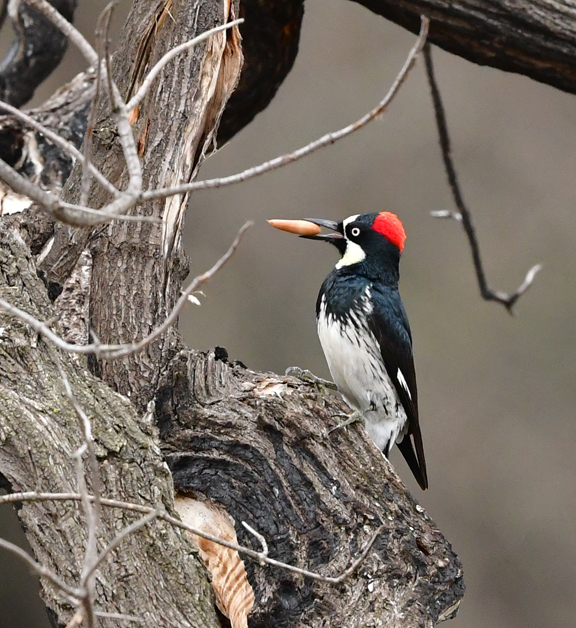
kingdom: Animalia
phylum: Chordata
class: Aves
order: Piciformes
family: Picidae
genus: Melanerpes
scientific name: Melanerpes formicivorus
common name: Acorn woodpecker
